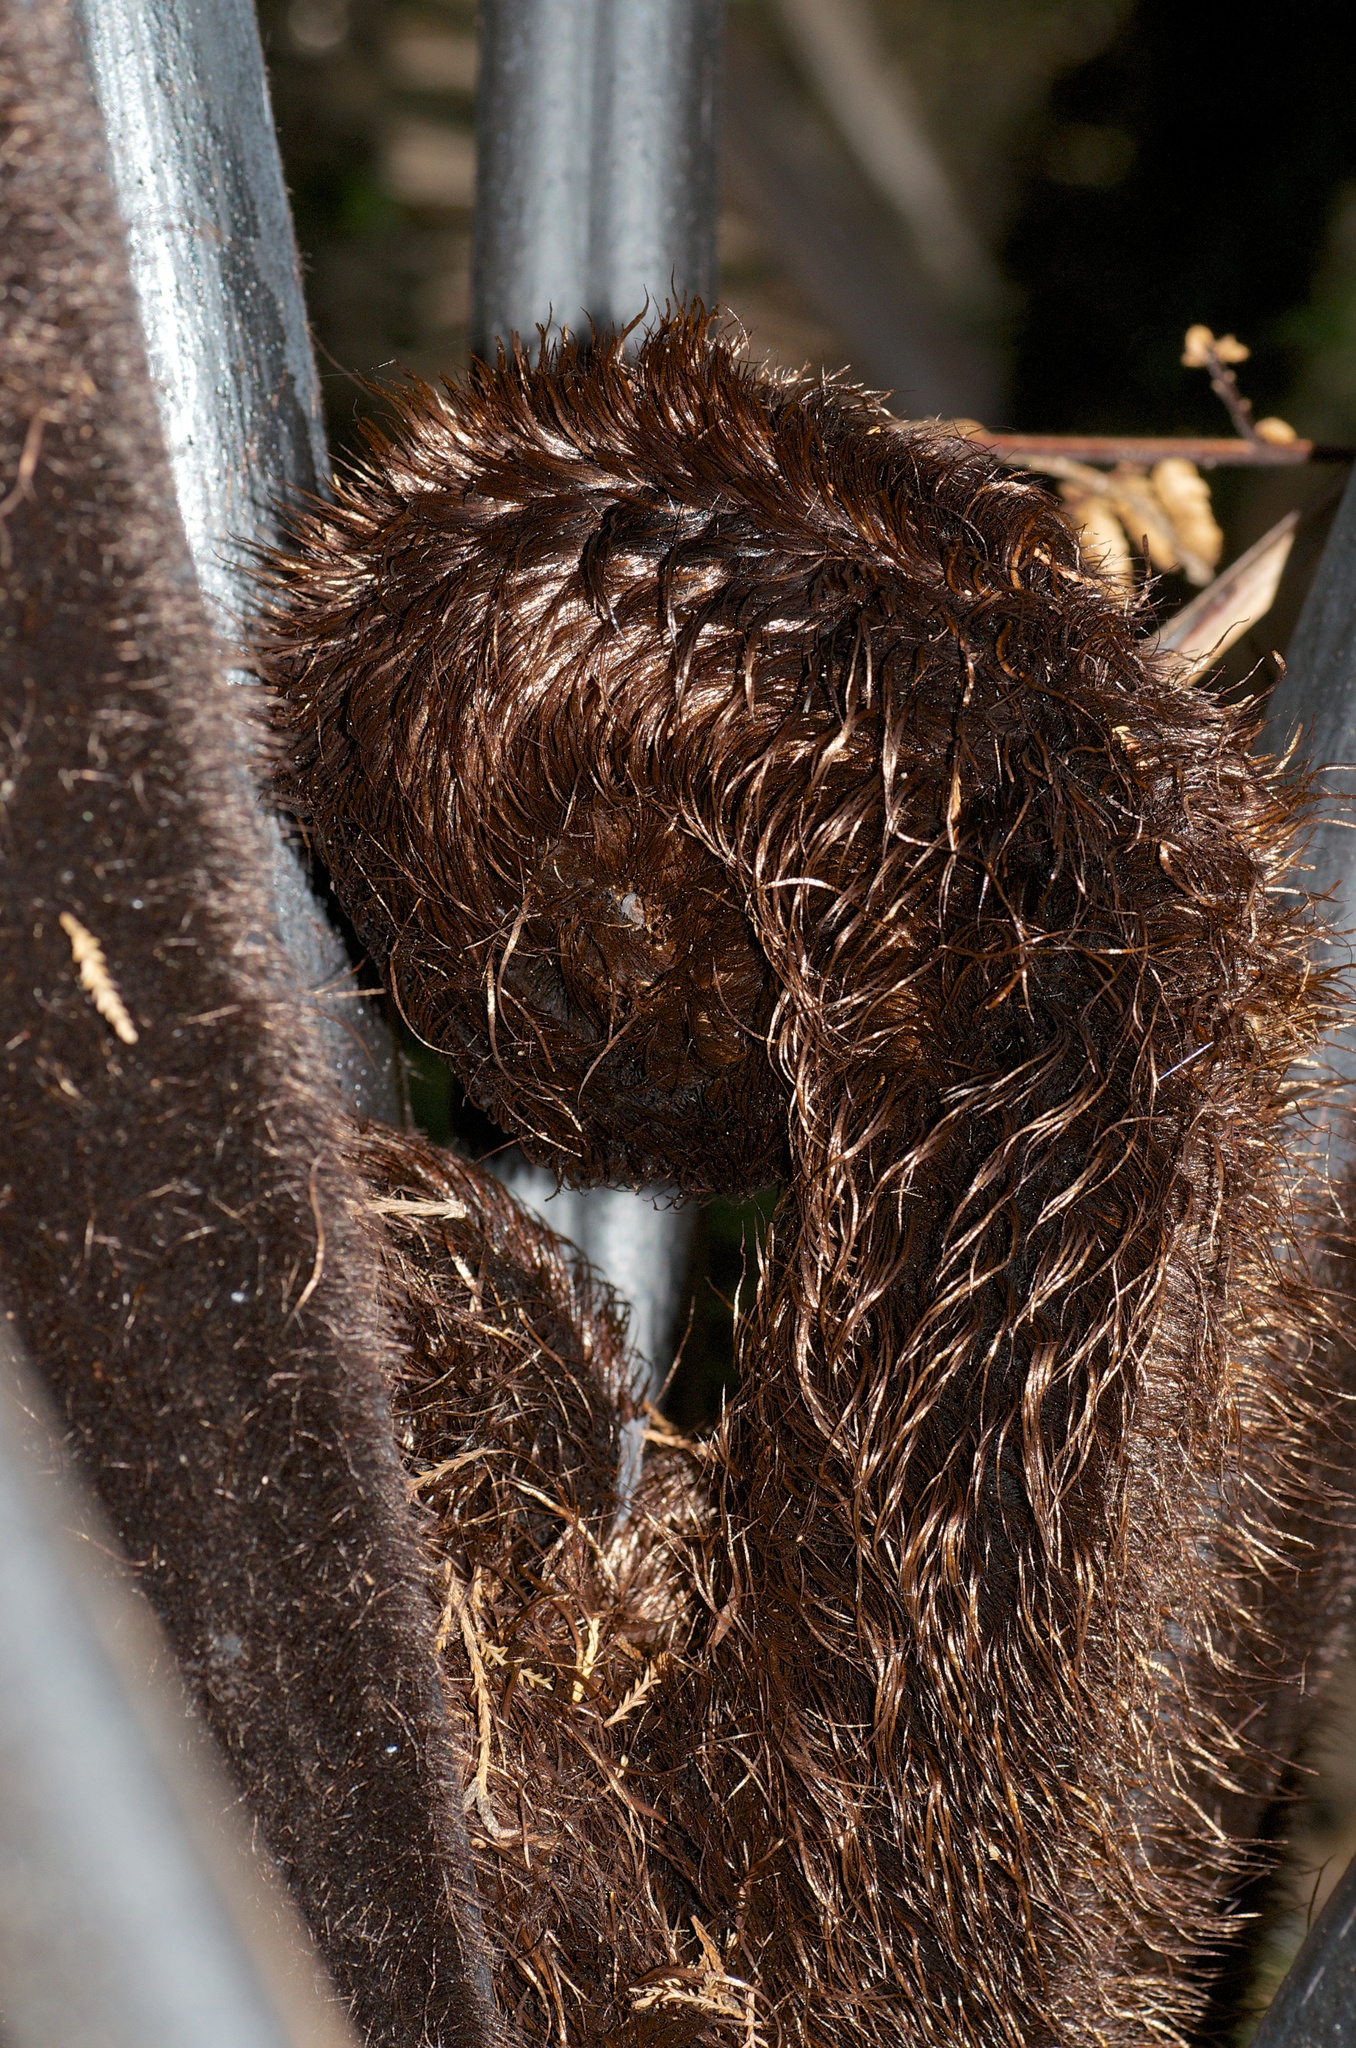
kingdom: Plantae
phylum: Tracheophyta
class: Polypodiopsida
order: Cyatheales
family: Cyatheaceae
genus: Sphaeropteris
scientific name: Sphaeropteris medullaris
